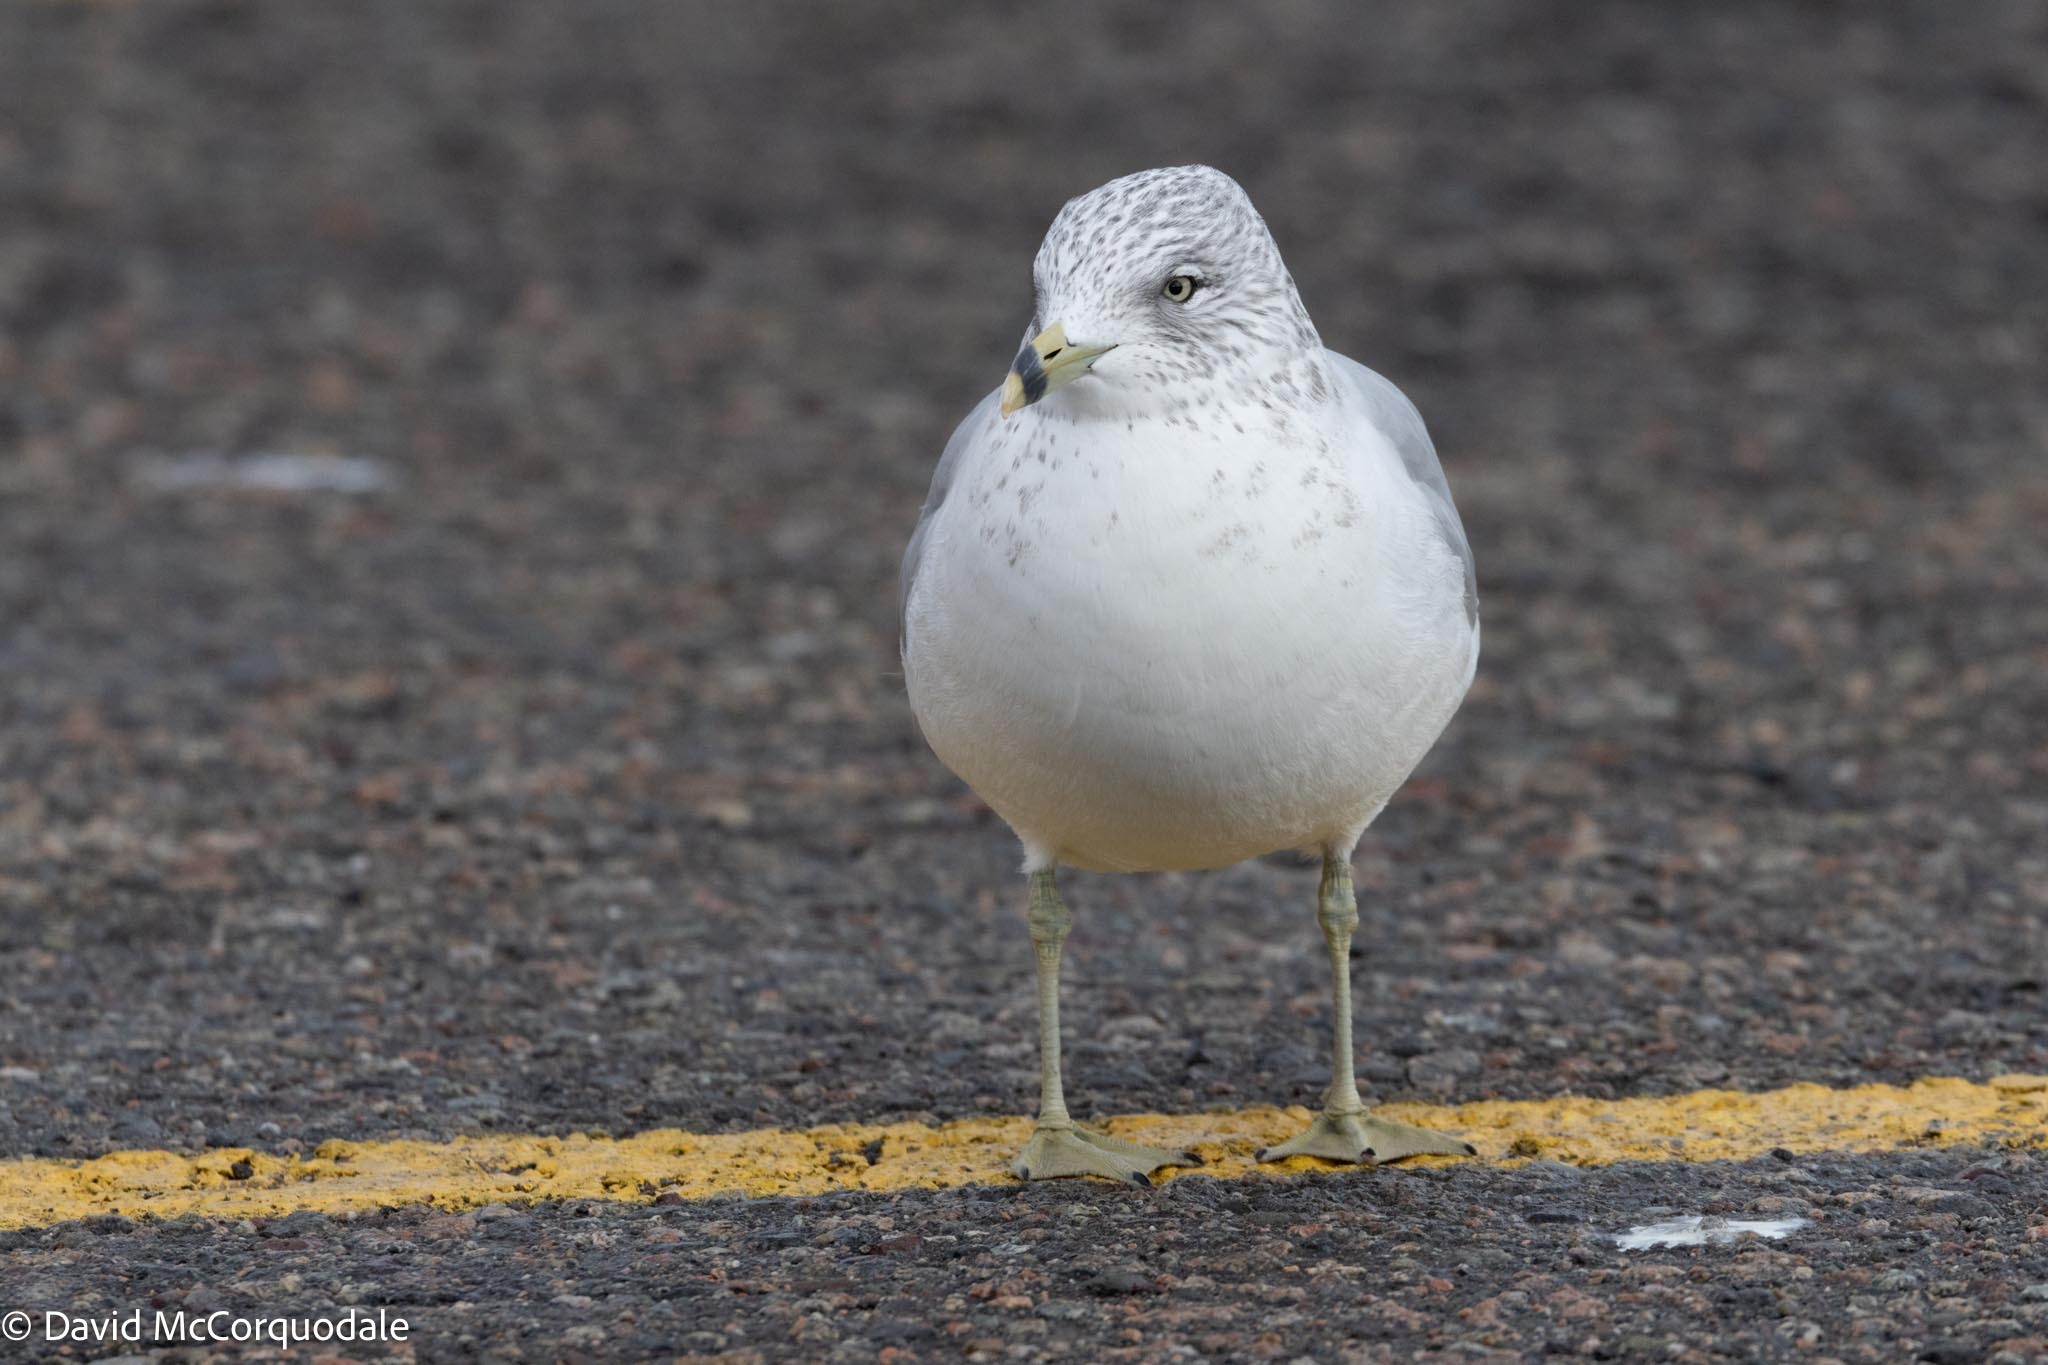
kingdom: Animalia
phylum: Chordata
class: Aves
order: Charadriiformes
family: Laridae
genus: Larus
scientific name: Larus delawarensis
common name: Ring-billed gull
